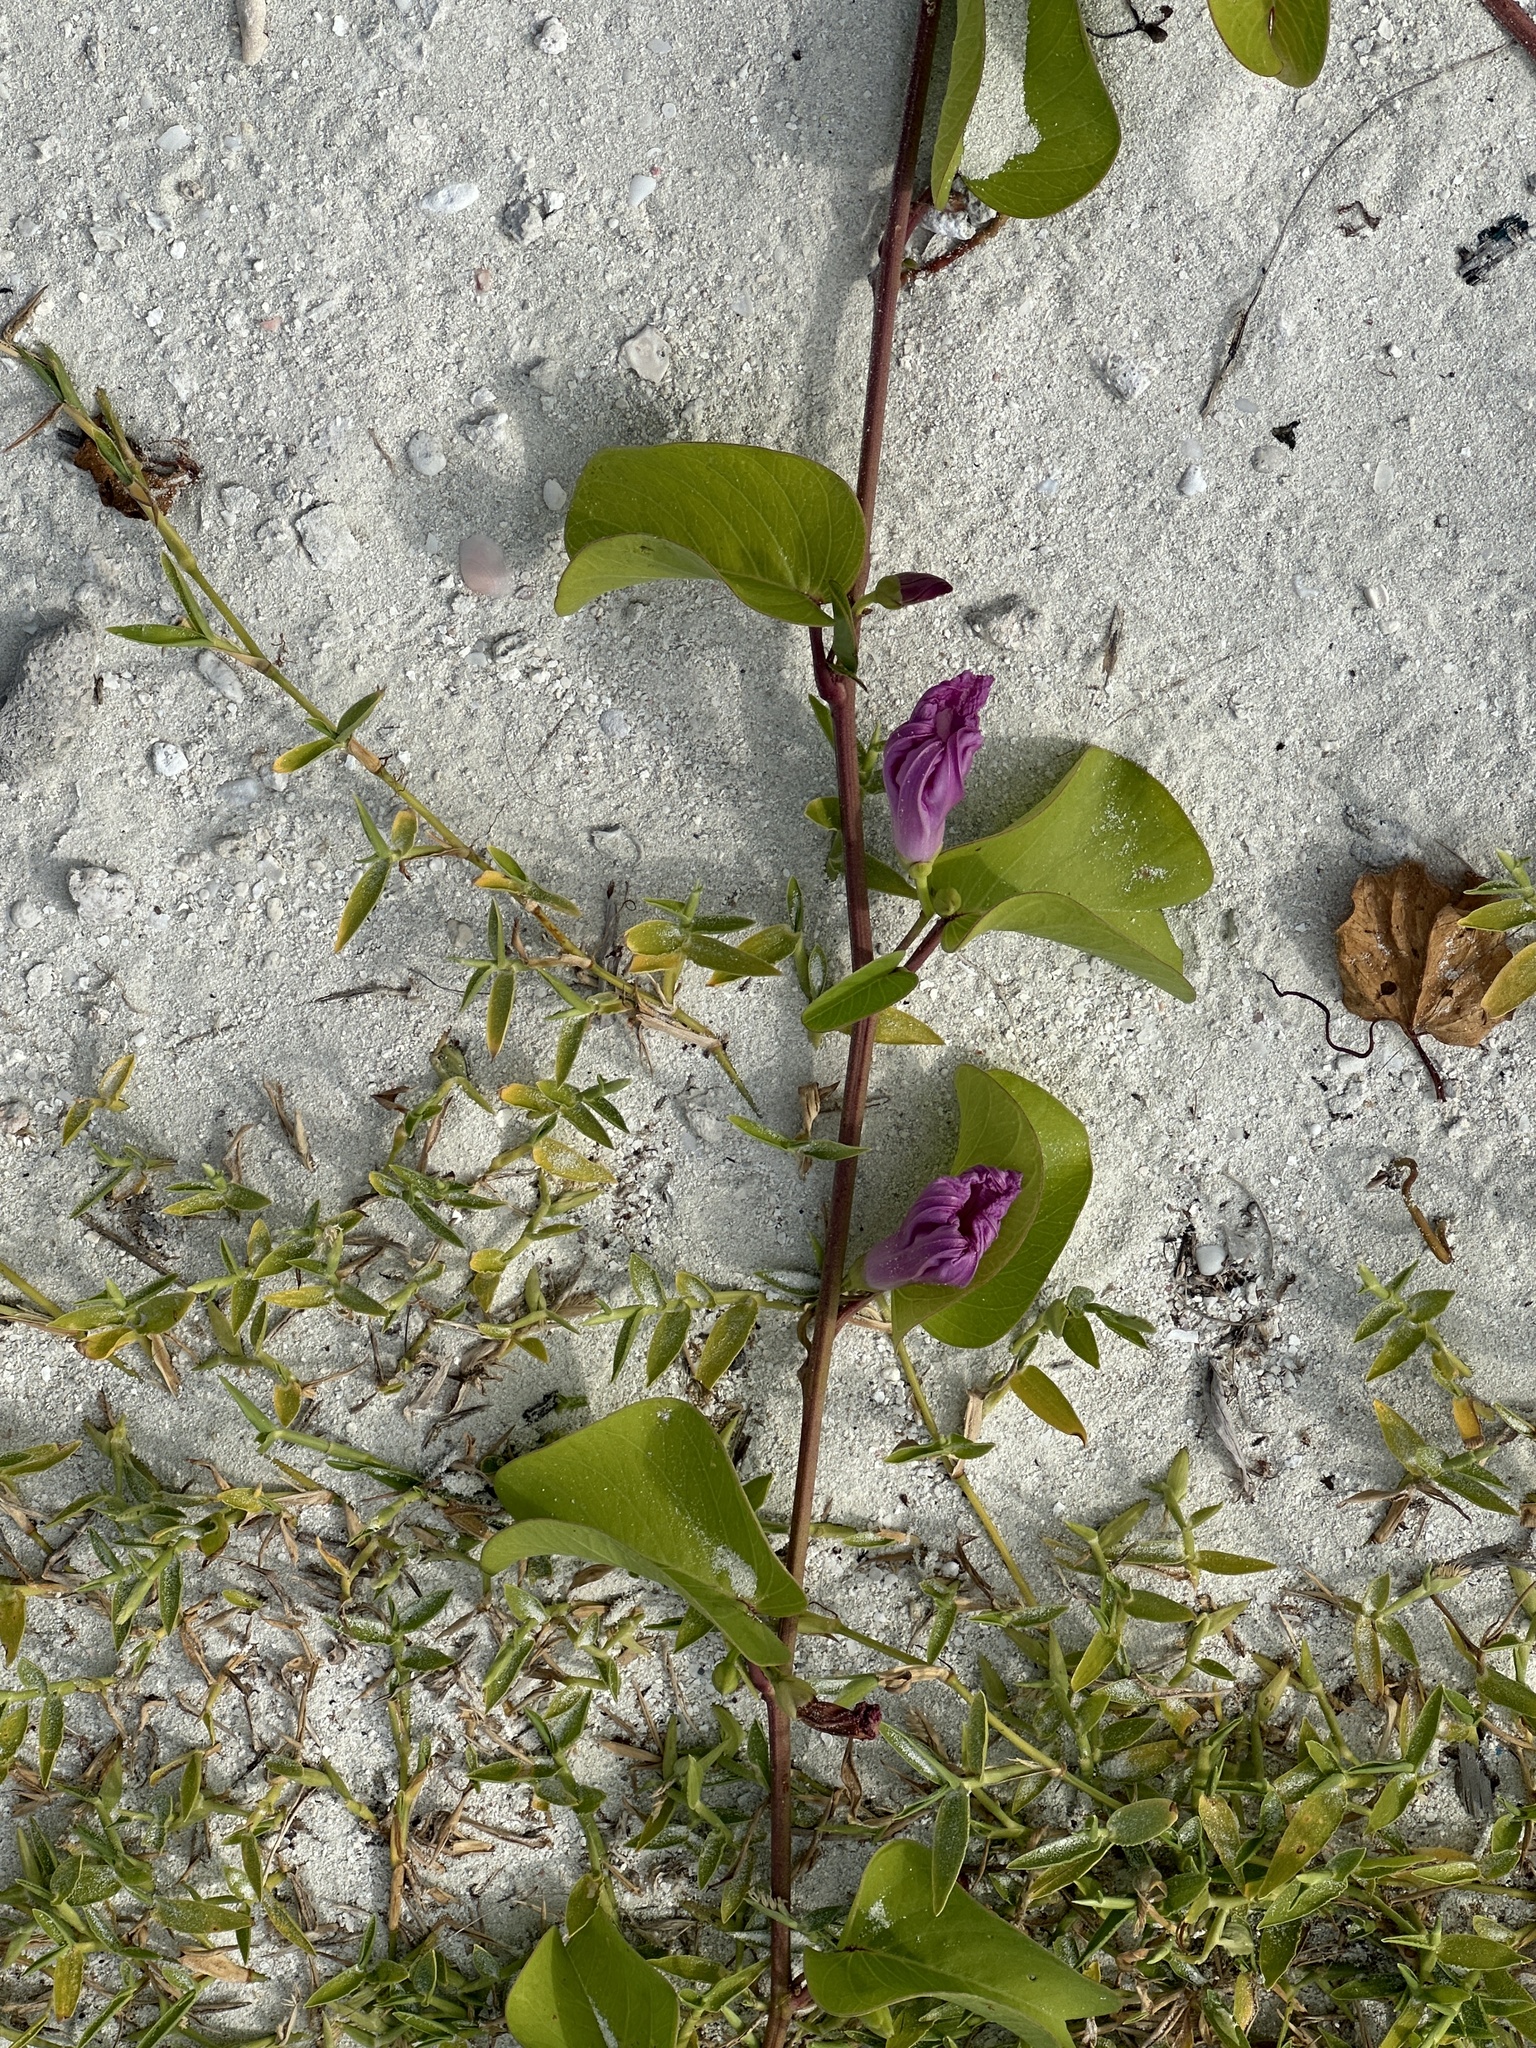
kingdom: Plantae
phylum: Tracheophyta
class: Magnoliopsida
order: Solanales
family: Convolvulaceae
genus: Ipomoea
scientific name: Ipomoea pes-caprae
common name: Beach morning glory
